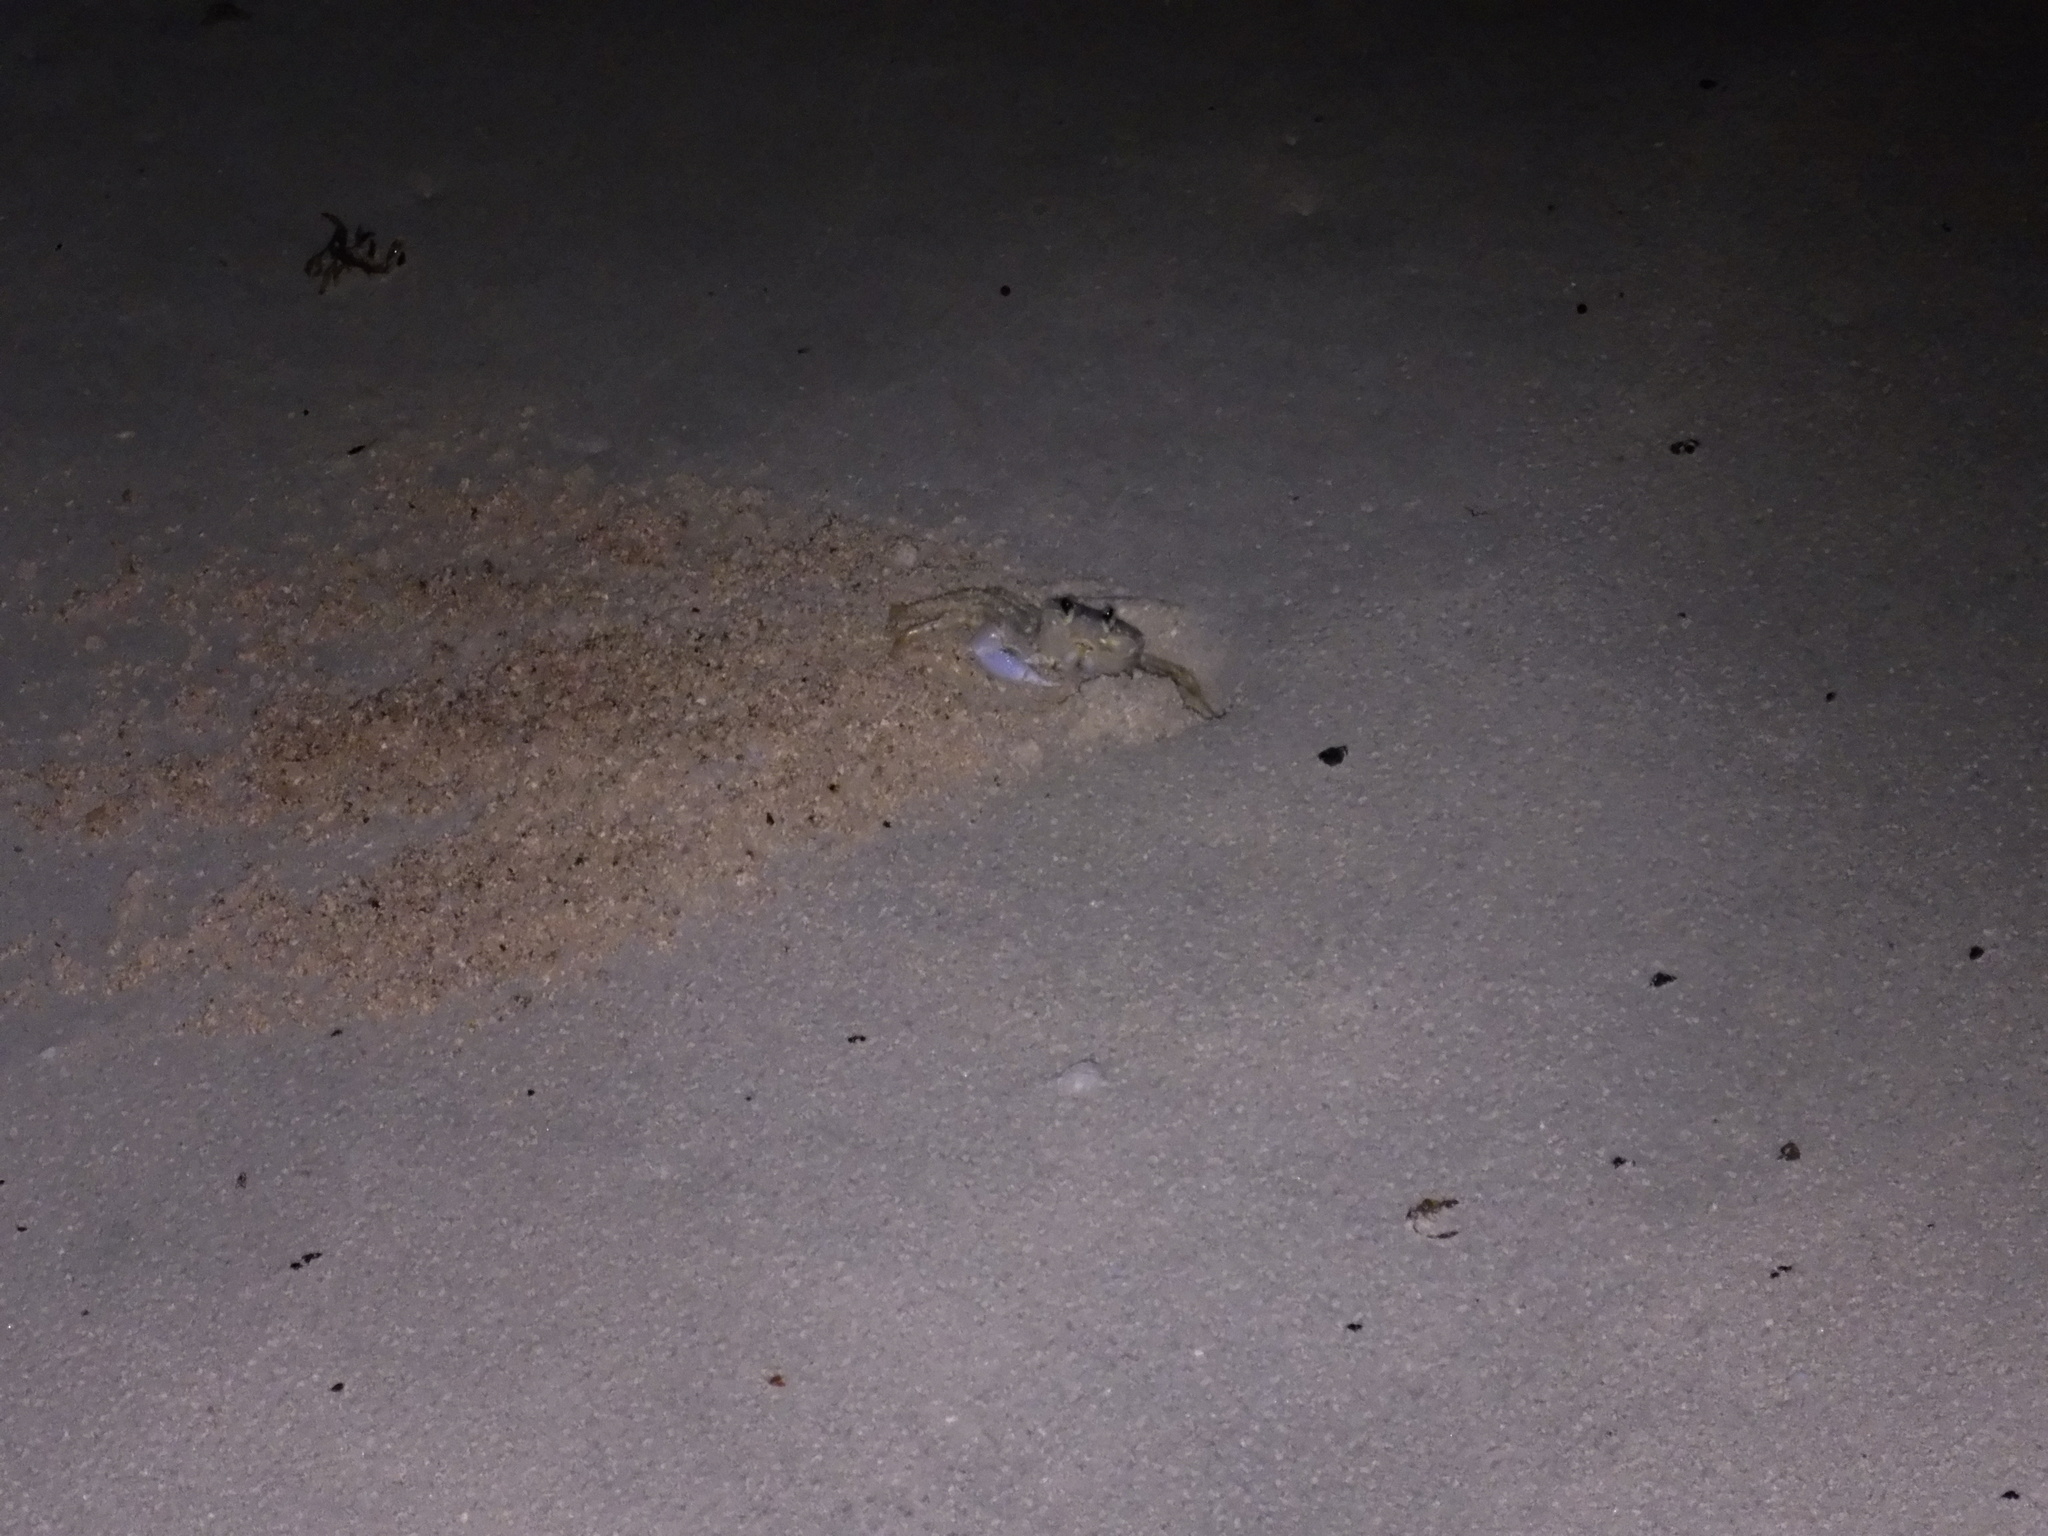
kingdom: Animalia
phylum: Arthropoda
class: Malacostraca
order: Decapoda
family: Ocypodidae
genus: Ocypode
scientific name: Ocypode quadrata
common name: Ghost crab
